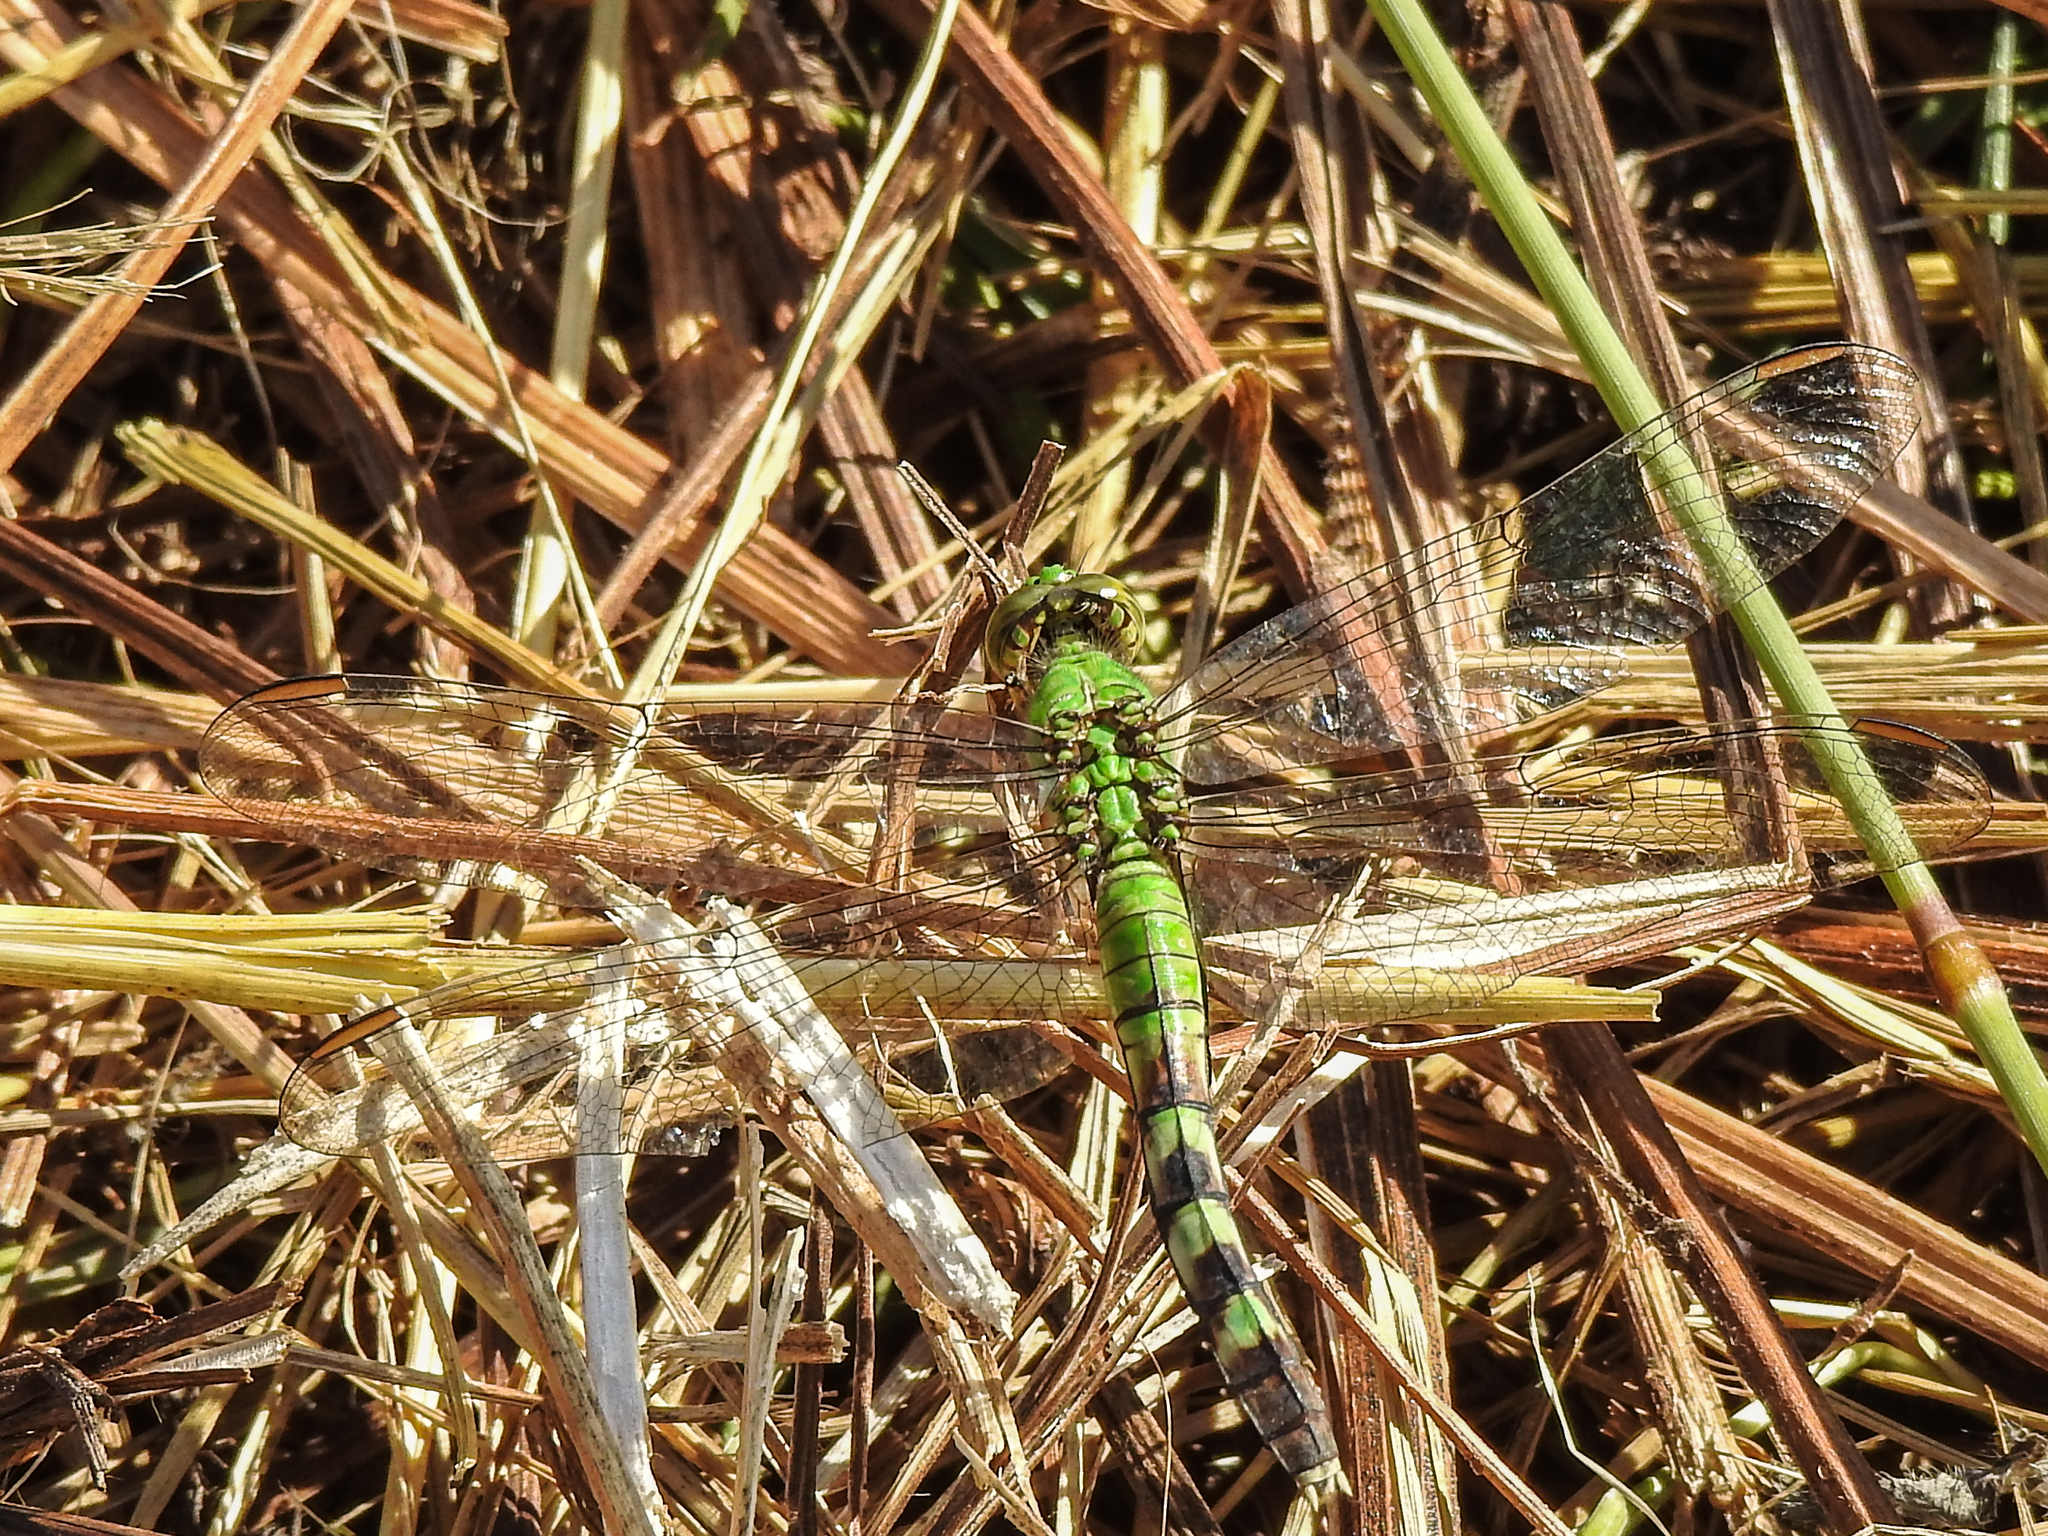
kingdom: Animalia
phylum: Arthropoda
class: Insecta
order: Odonata
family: Libellulidae
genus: Erythemis
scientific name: Erythemis simplicicollis
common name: Eastern pondhawk
